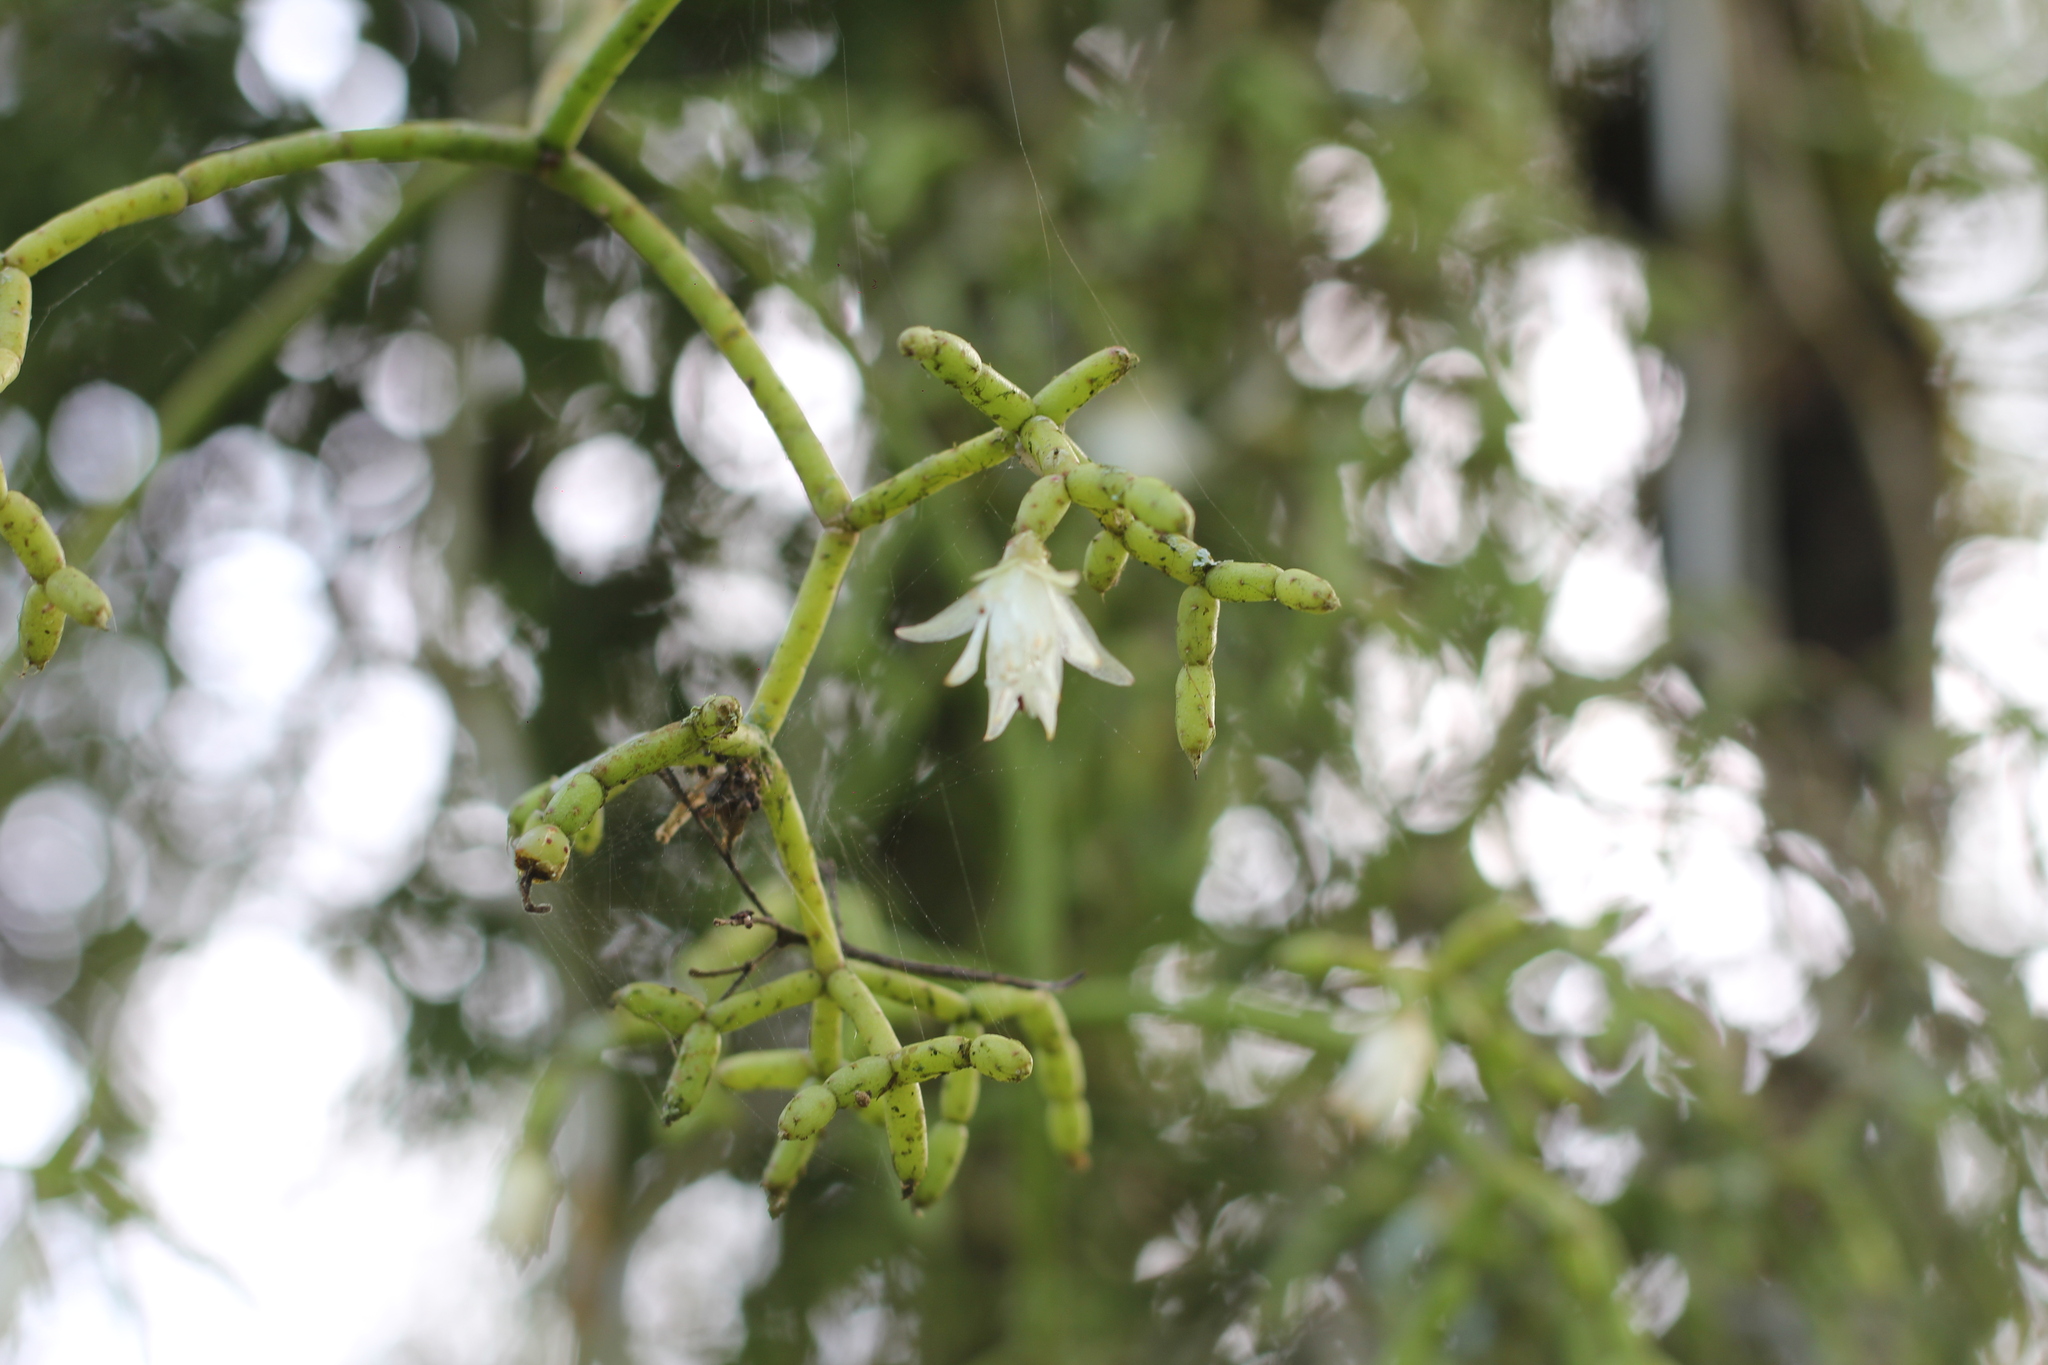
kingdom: Plantae
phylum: Tracheophyta
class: Magnoliopsida
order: Caryophyllales
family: Cactaceae
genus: Rhipsalis
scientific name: Rhipsalis cereuscula
